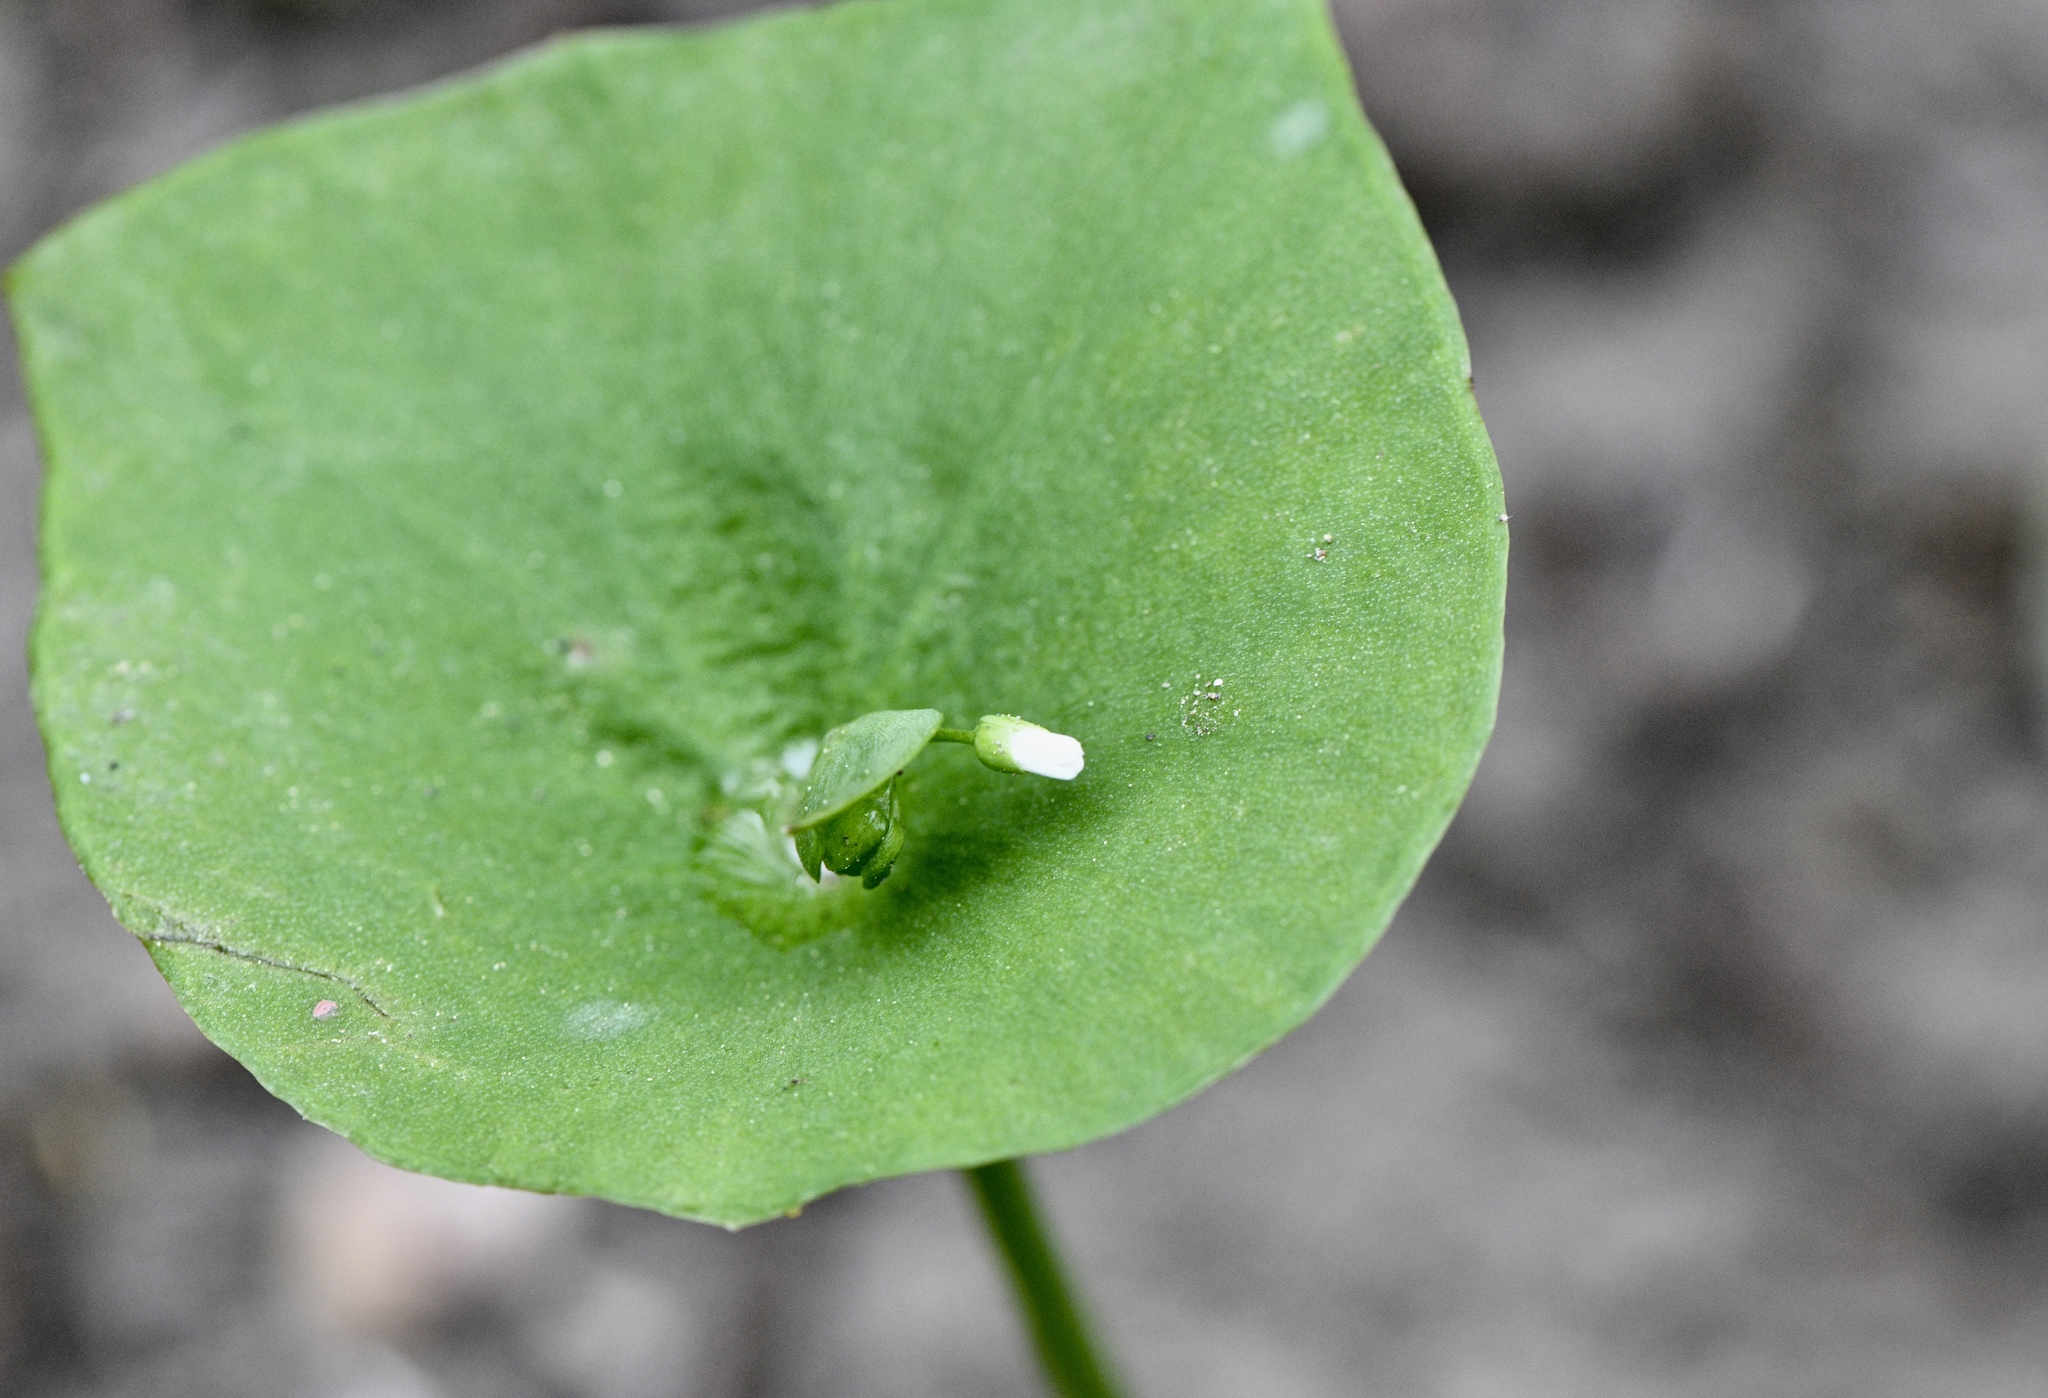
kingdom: Plantae
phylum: Tracheophyta
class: Magnoliopsida
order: Caryophyllales
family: Montiaceae
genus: Claytonia
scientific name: Claytonia perfoliata
